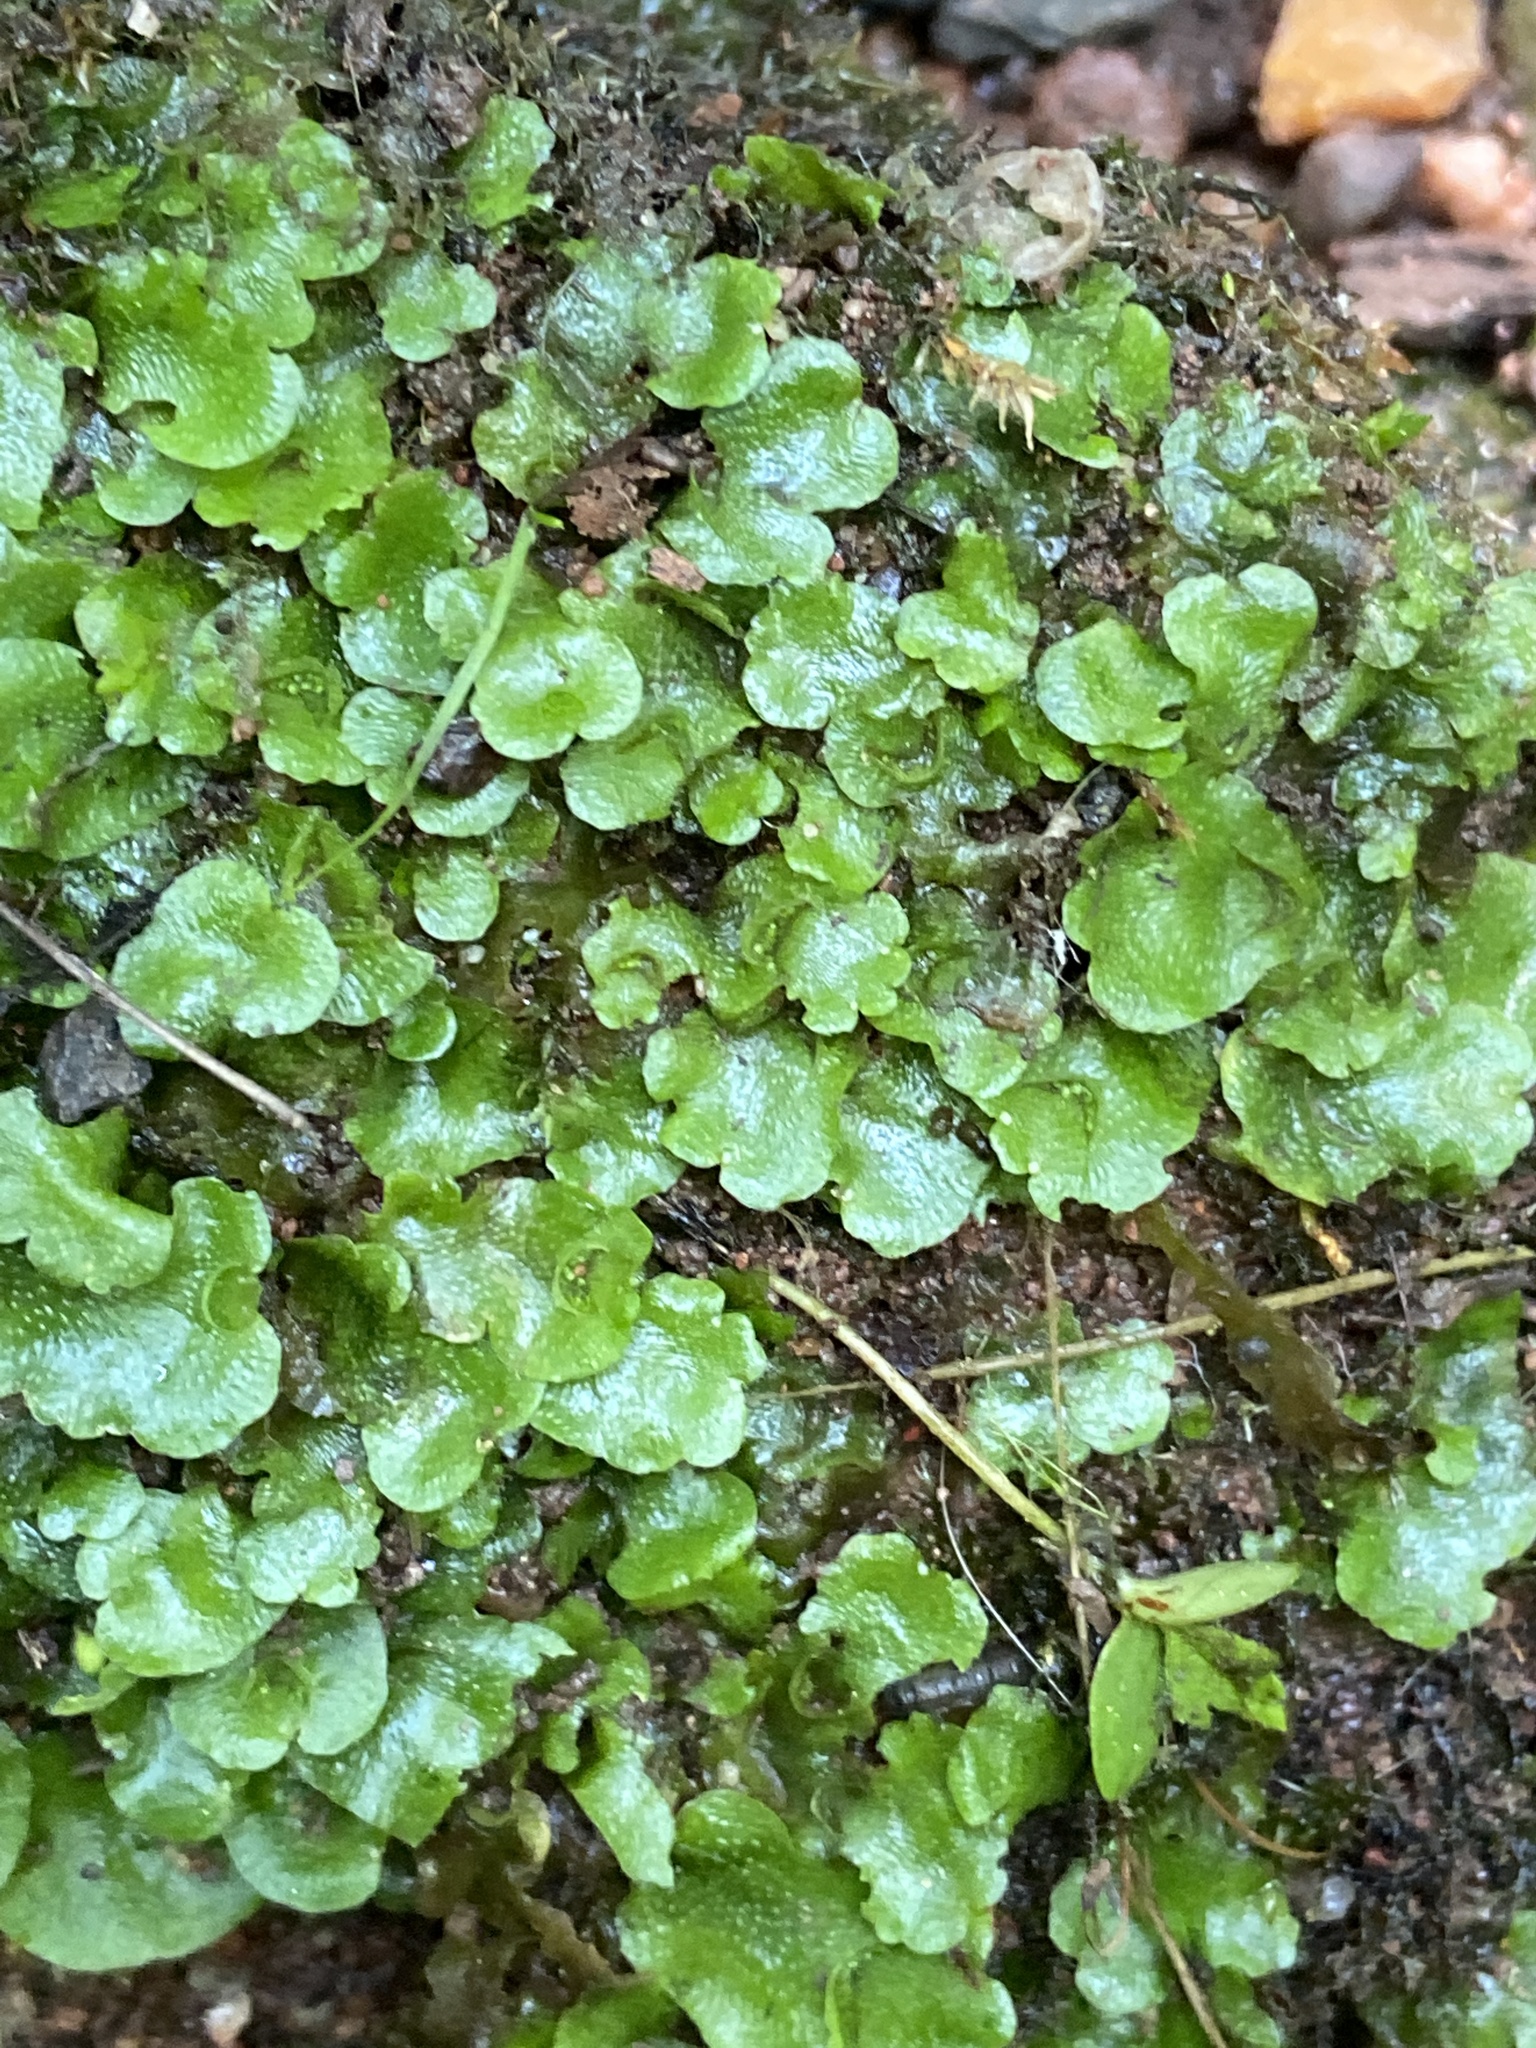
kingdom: Plantae
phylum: Marchantiophyta
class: Marchantiopsida
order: Lunulariales
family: Lunulariaceae
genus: Lunularia
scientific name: Lunularia cruciata
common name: Crescent-cup liverwort
